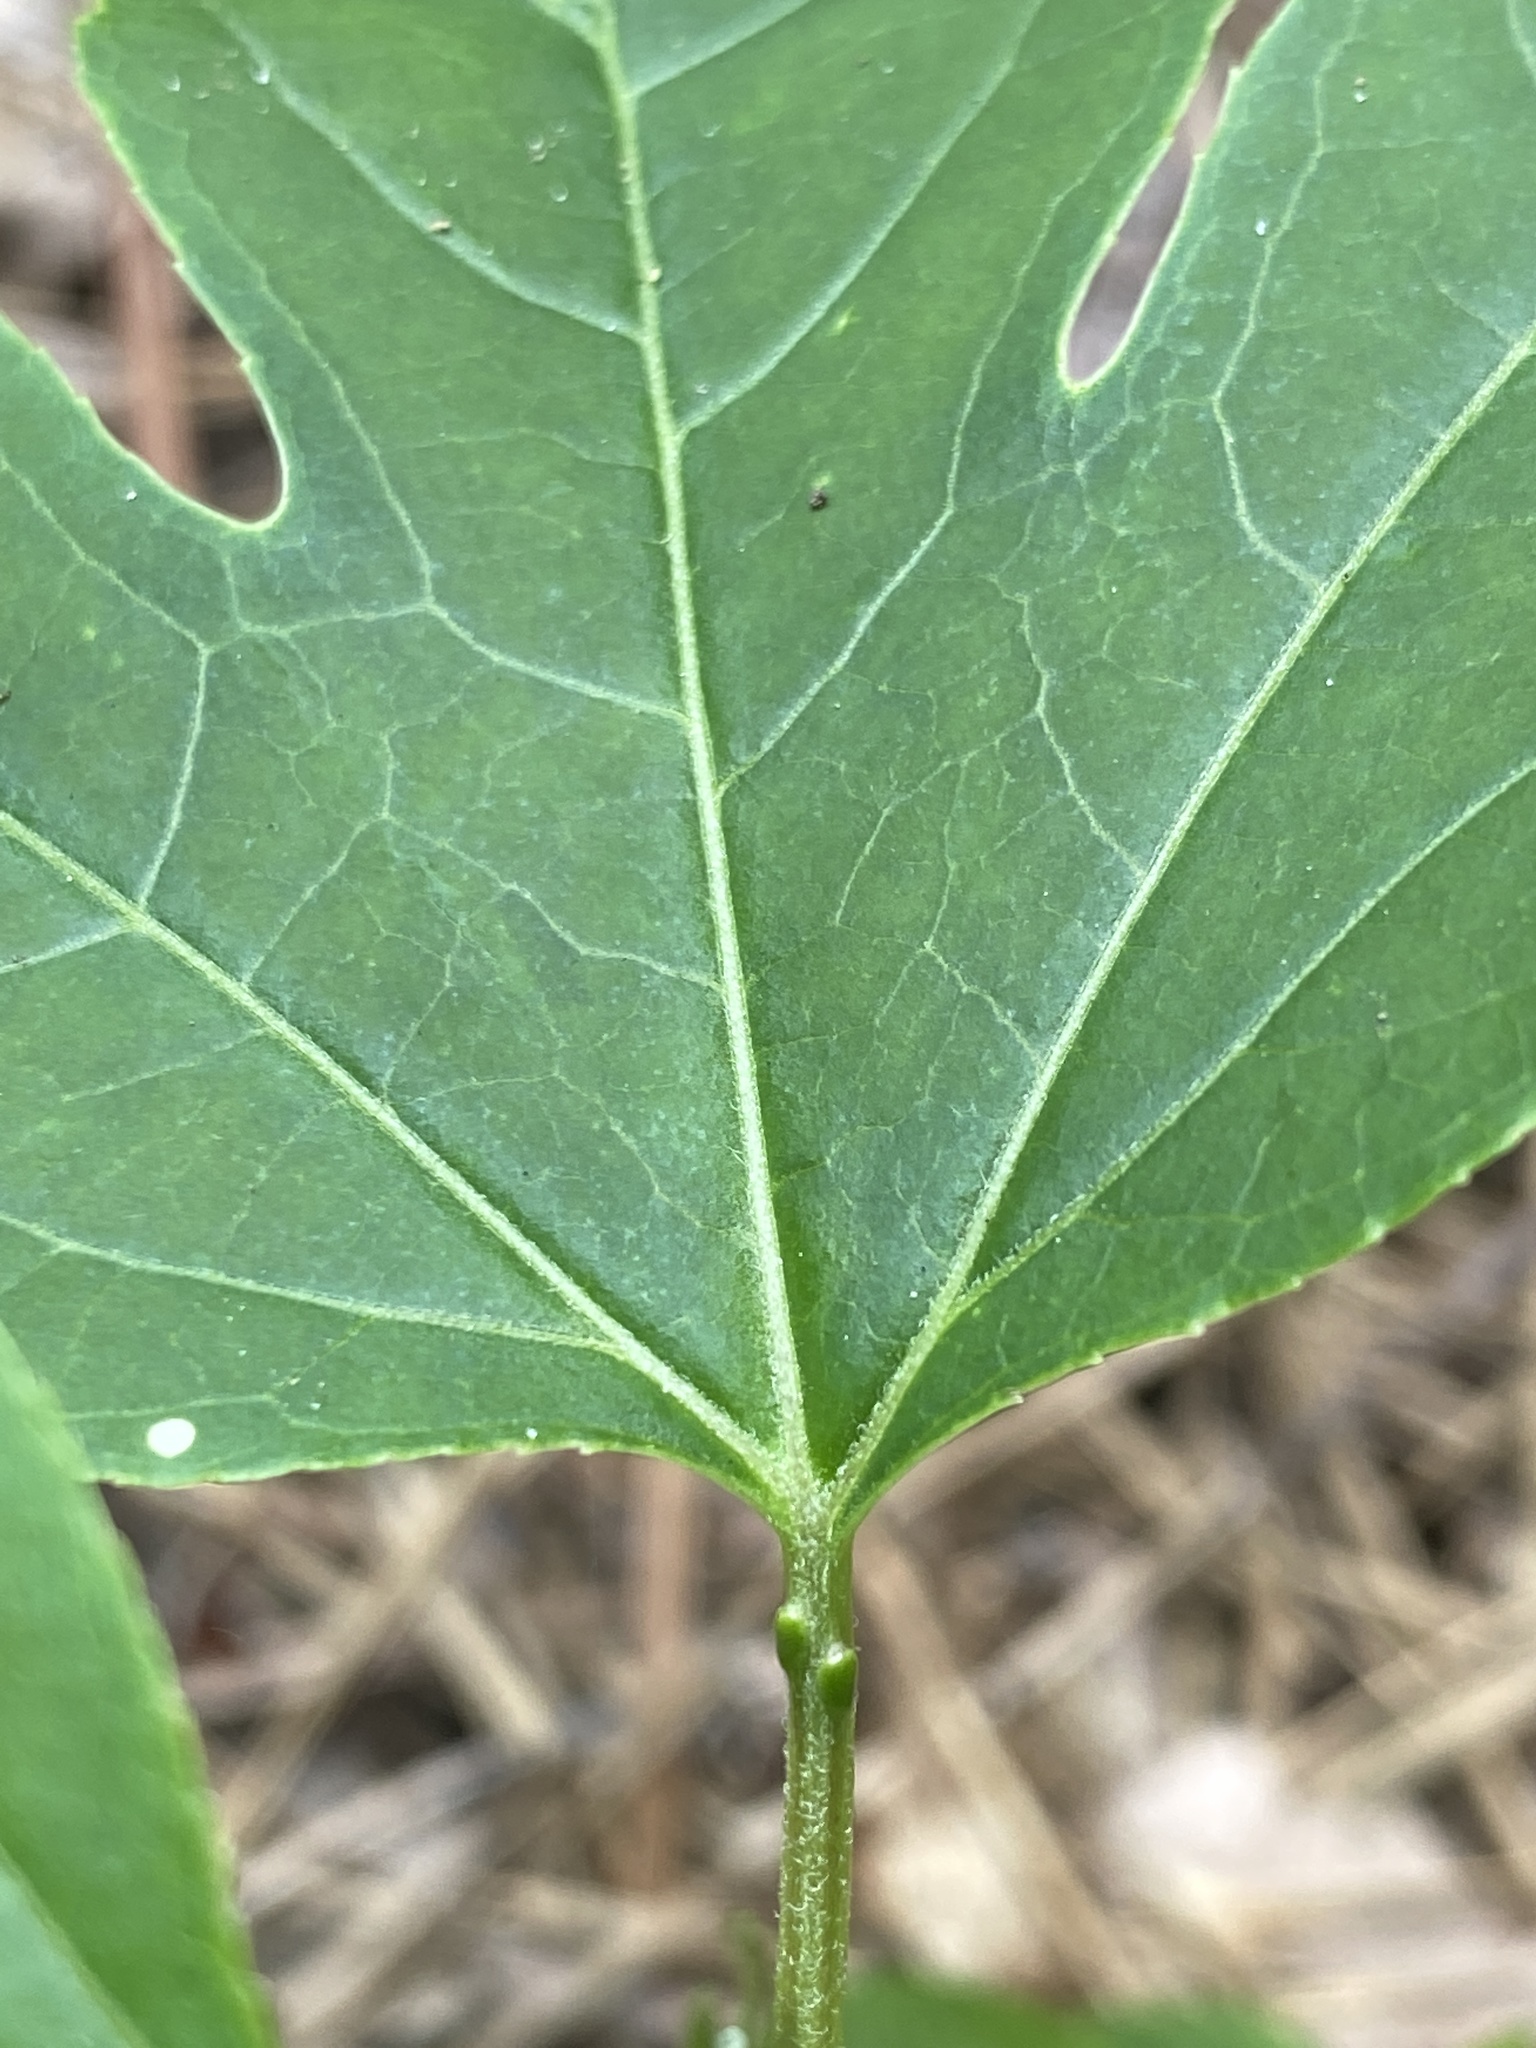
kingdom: Plantae
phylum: Tracheophyta
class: Magnoliopsida
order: Malpighiales
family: Passifloraceae
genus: Passiflora
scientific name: Passiflora incarnata
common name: Apricot-vine
